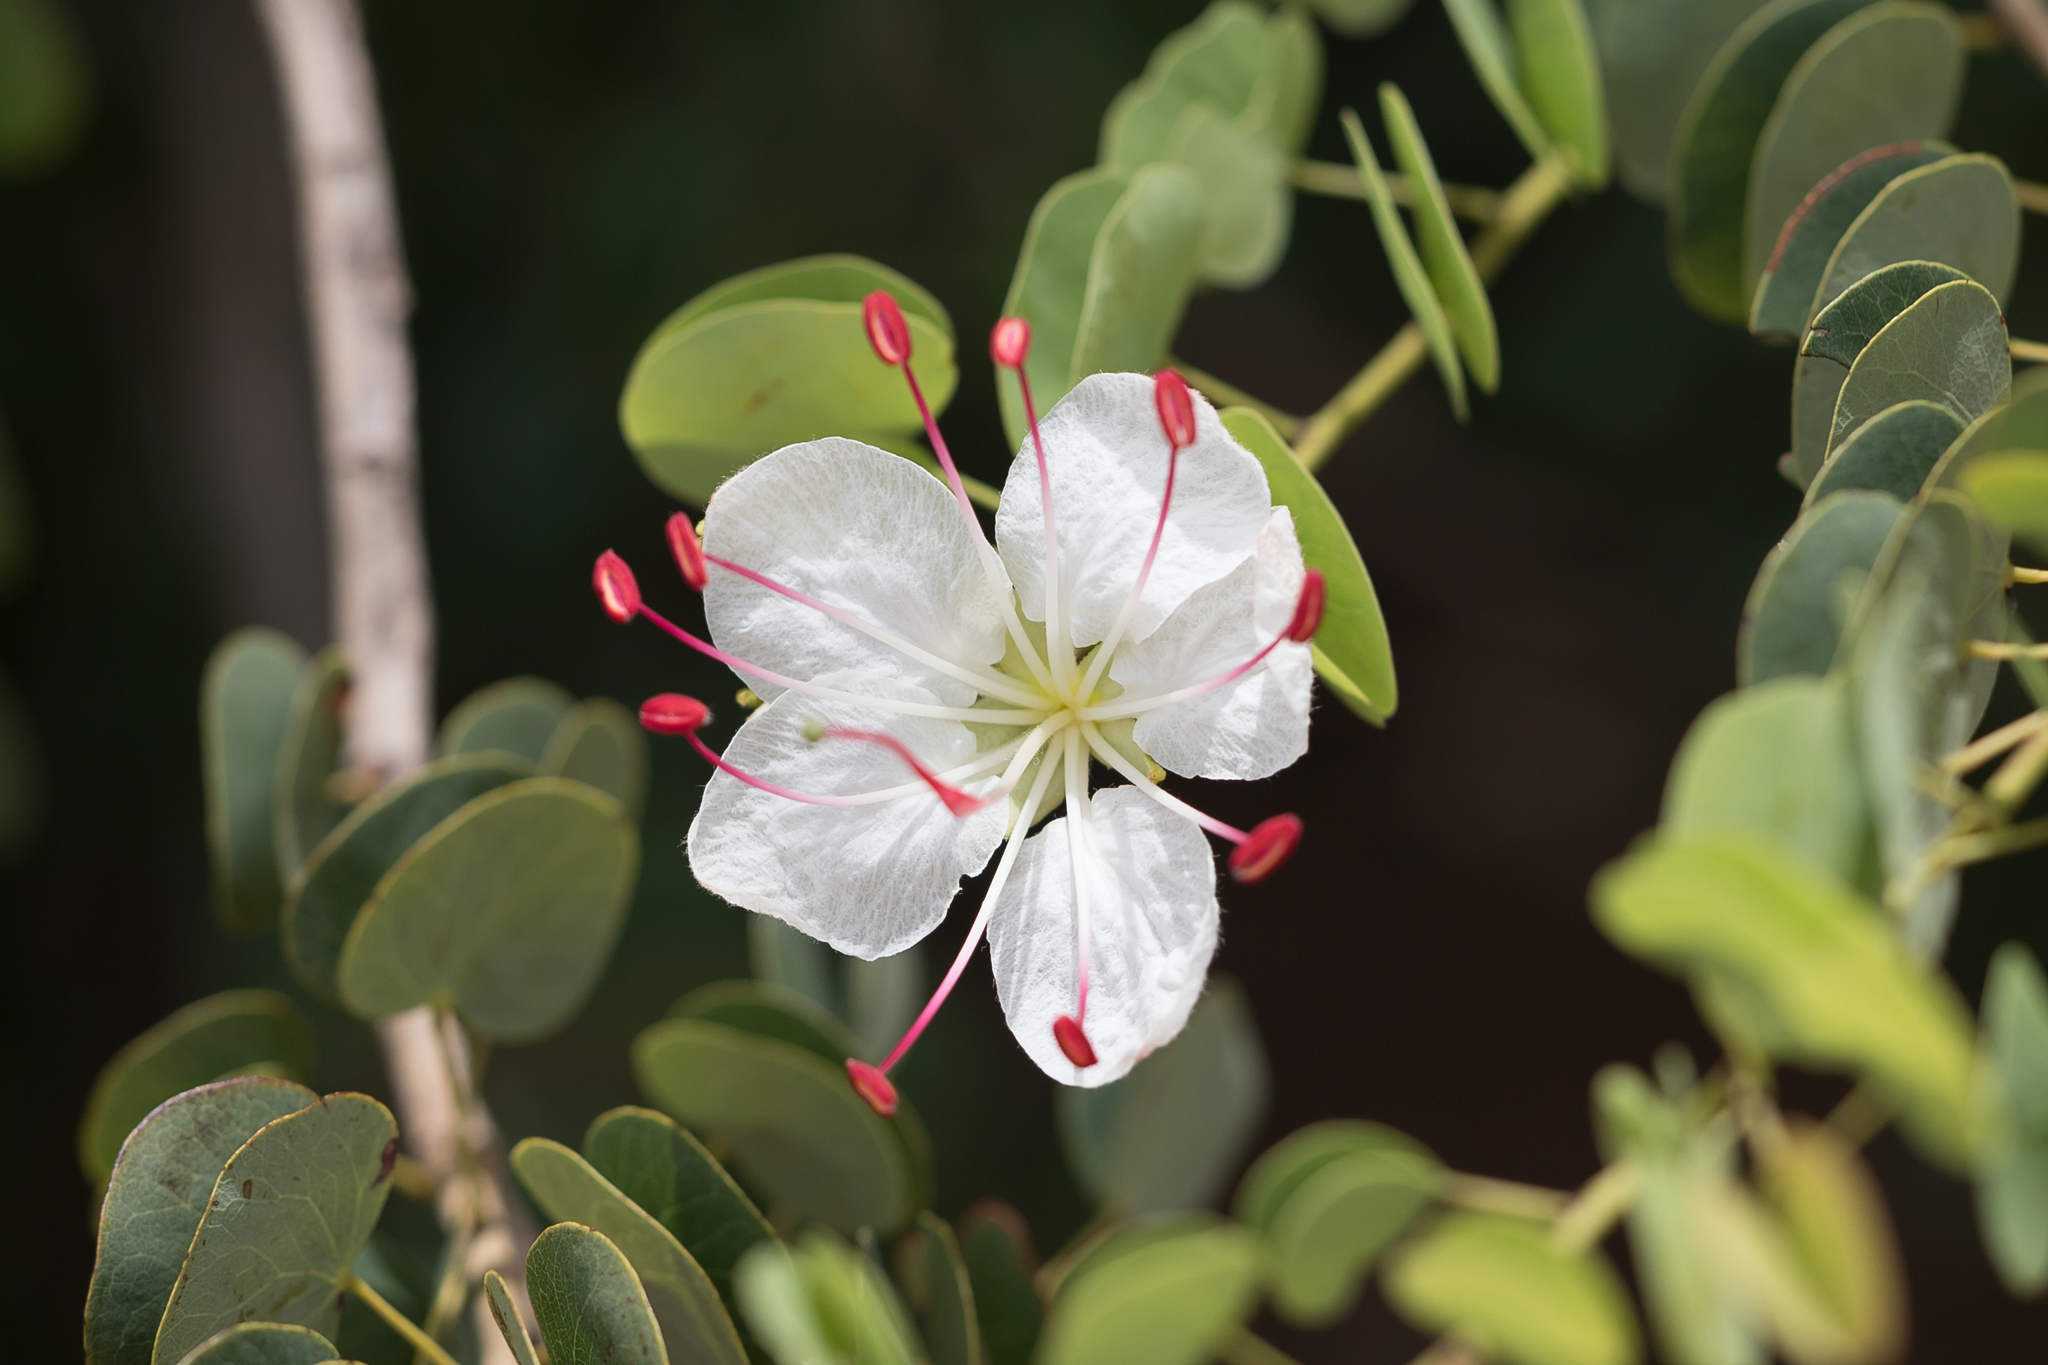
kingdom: Plantae
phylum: Tracheophyta
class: Magnoliopsida
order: Fabales
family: Fabaceae
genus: Lysiphyllum
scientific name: Lysiphyllum hookeri
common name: Hooker's bauhinia
